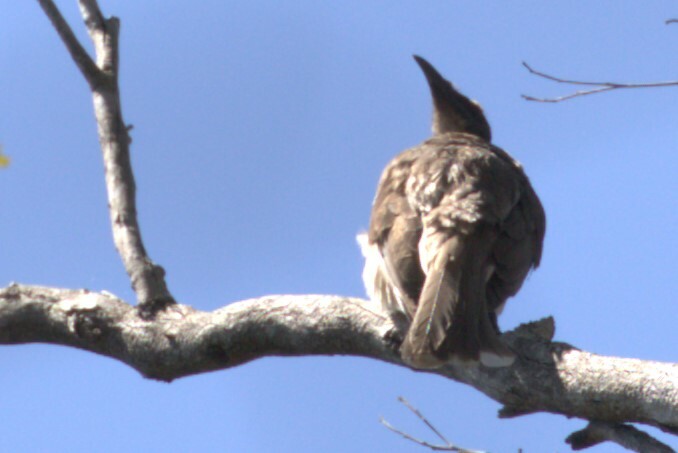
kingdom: Animalia
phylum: Chordata
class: Aves
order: Passeriformes
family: Meliphagidae
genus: Philemon
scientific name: Philemon corniculatus
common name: Noisy friarbird
